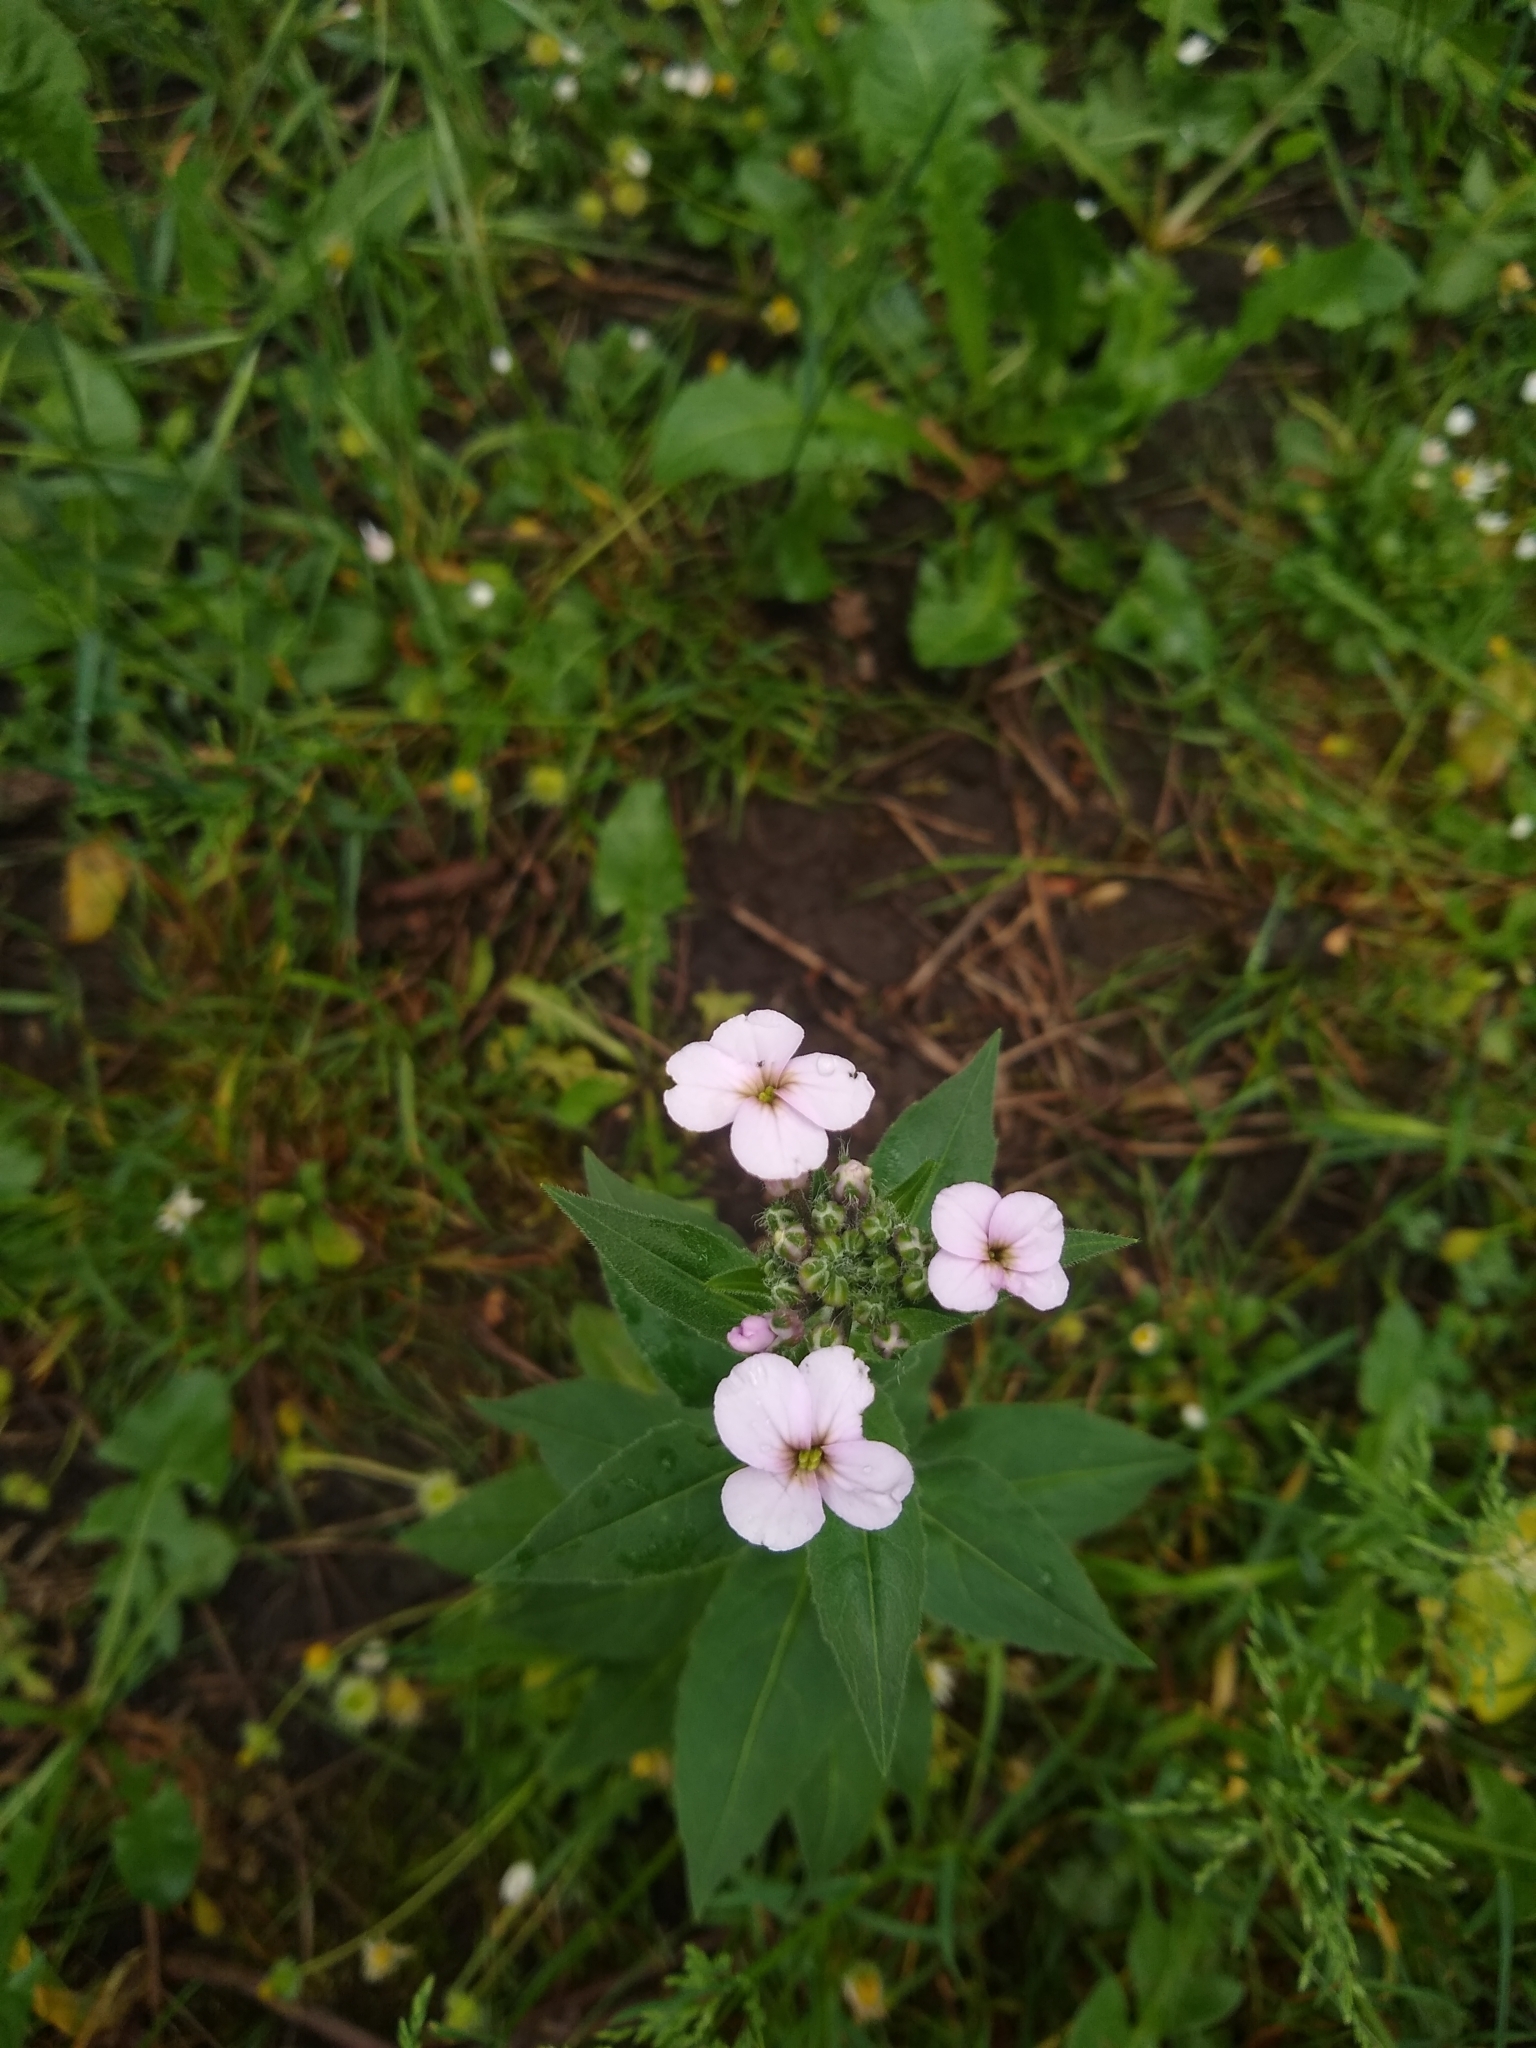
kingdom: Plantae
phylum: Tracheophyta
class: Magnoliopsida
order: Brassicales
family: Brassicaceae
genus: Hesperis
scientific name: Hesperis matronalis
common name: Dame's-violet
